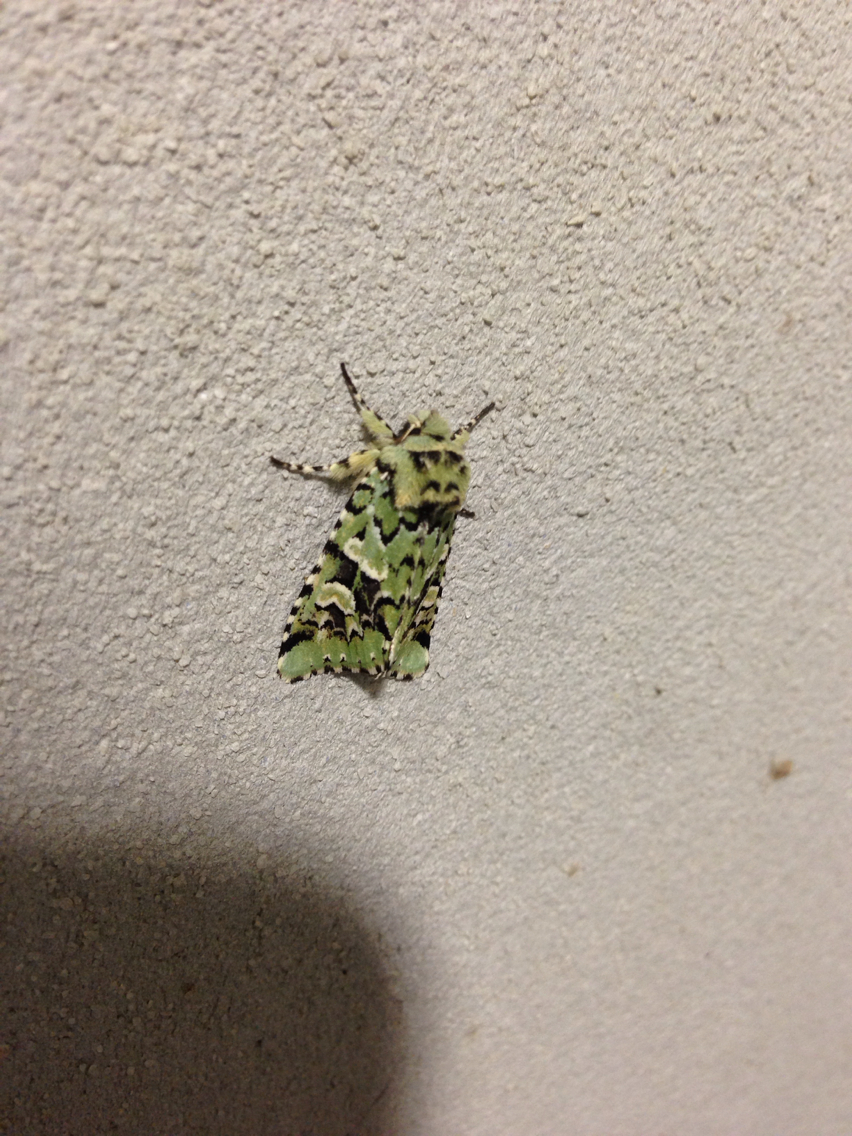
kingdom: Animalia
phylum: Arthropoda
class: Insecta
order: Lepidoptera
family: Noctuidae
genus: Feralia
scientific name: Feralia jocosa
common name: Joker
